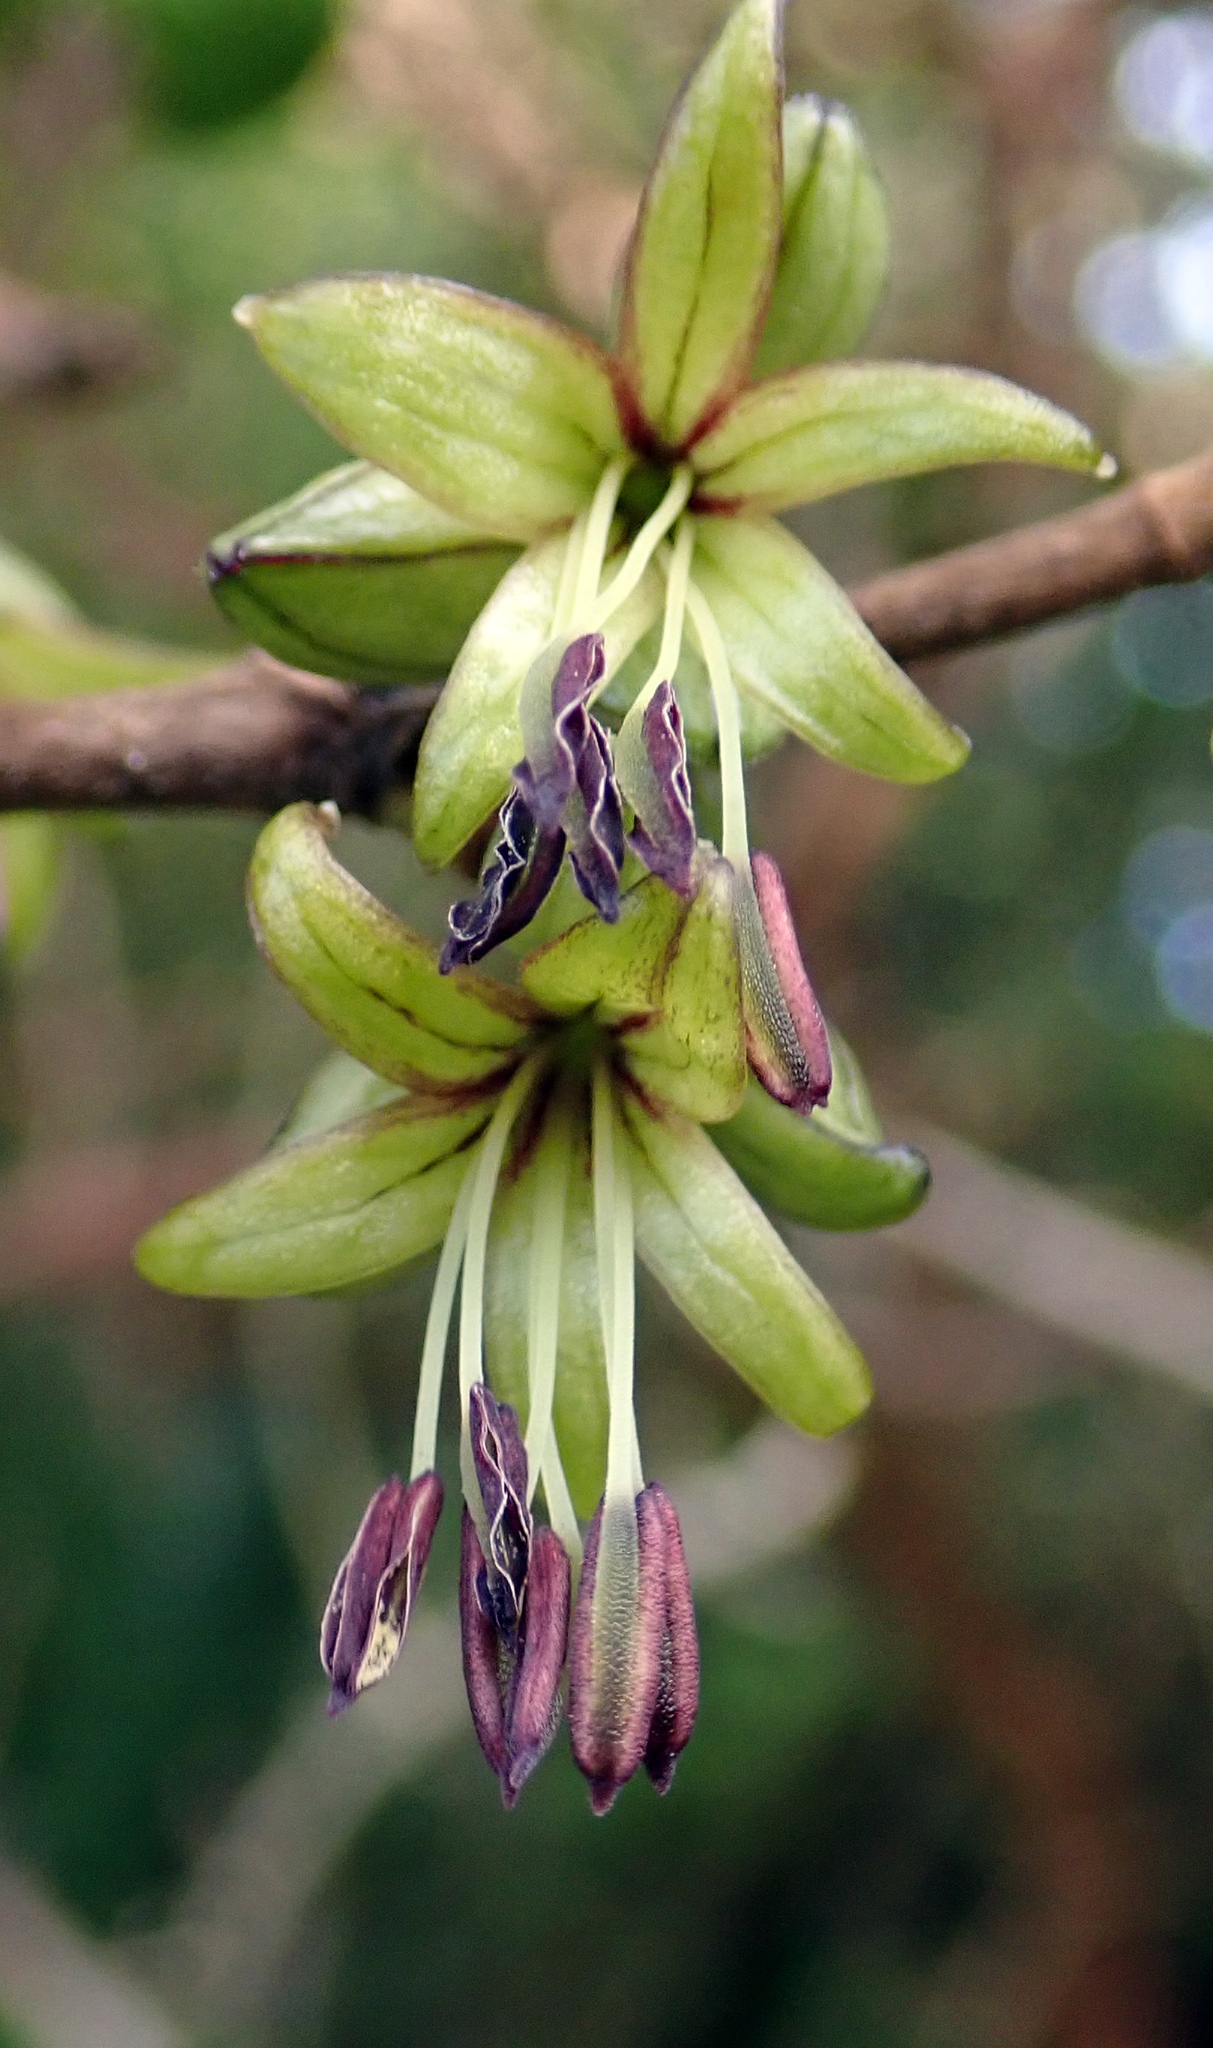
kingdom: Plantae
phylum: Tracheophyta
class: Magnoliopsida
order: Gentianales
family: Rubiaceae
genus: Coprosma
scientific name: Coprosma chathamica
